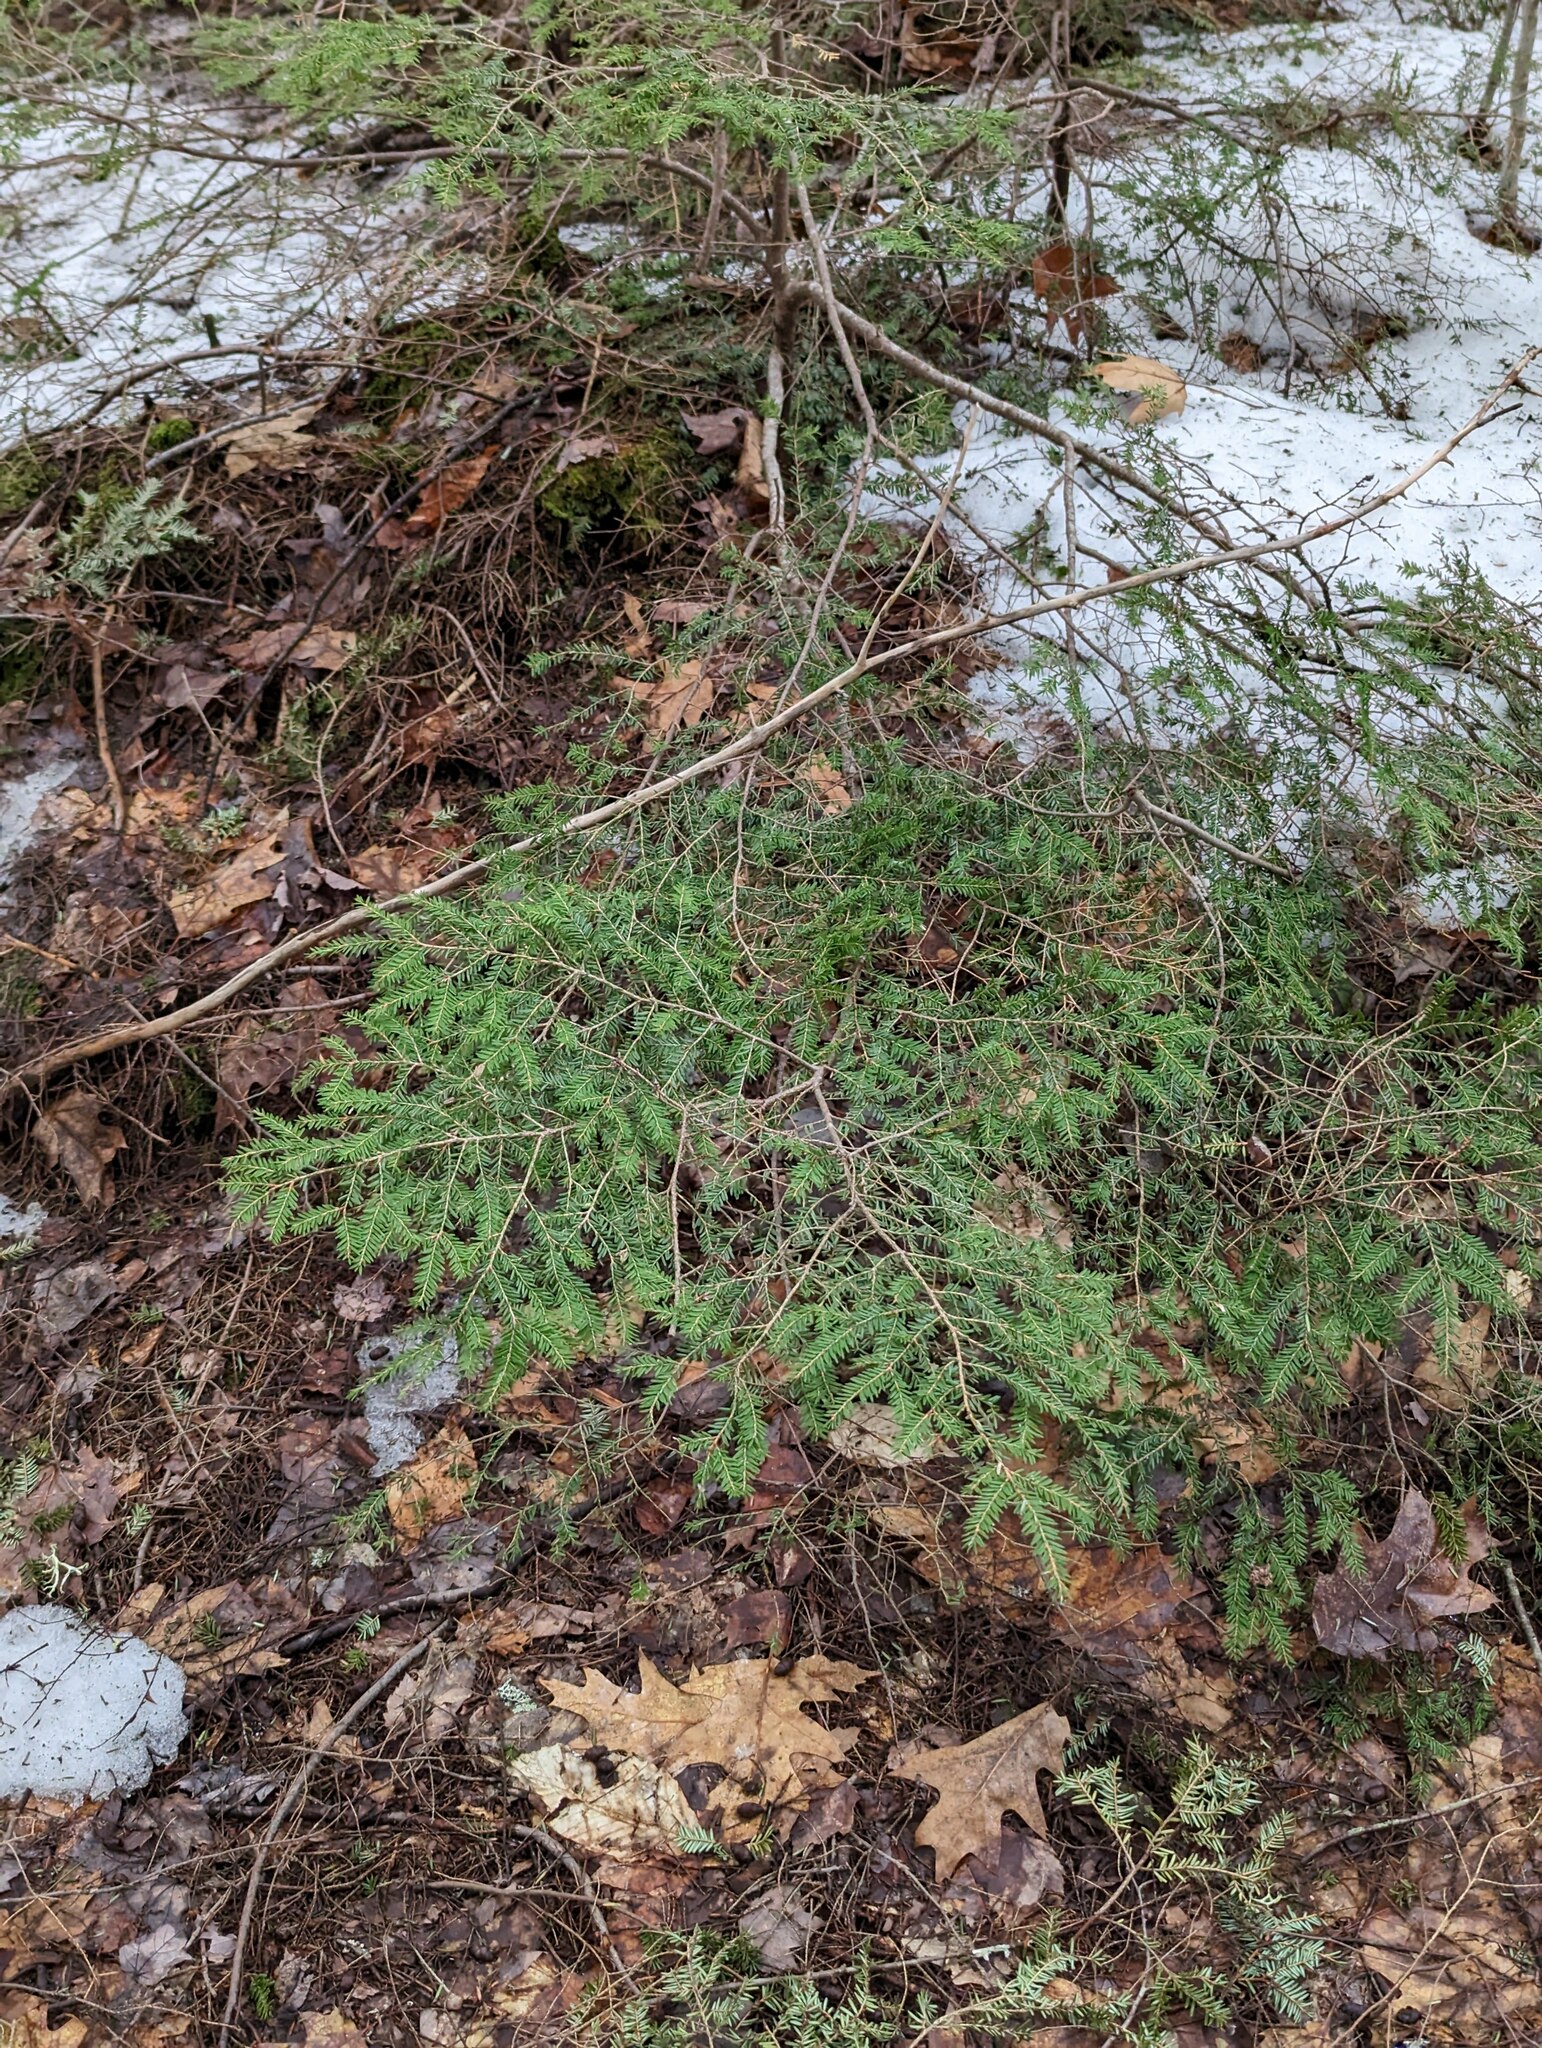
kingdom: Plantae
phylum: Tracheophyta
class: Pinopsida
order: Pinales
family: Pinaceae
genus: Tsuga
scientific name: Tsuga canadensis
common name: Eastern hemlock
